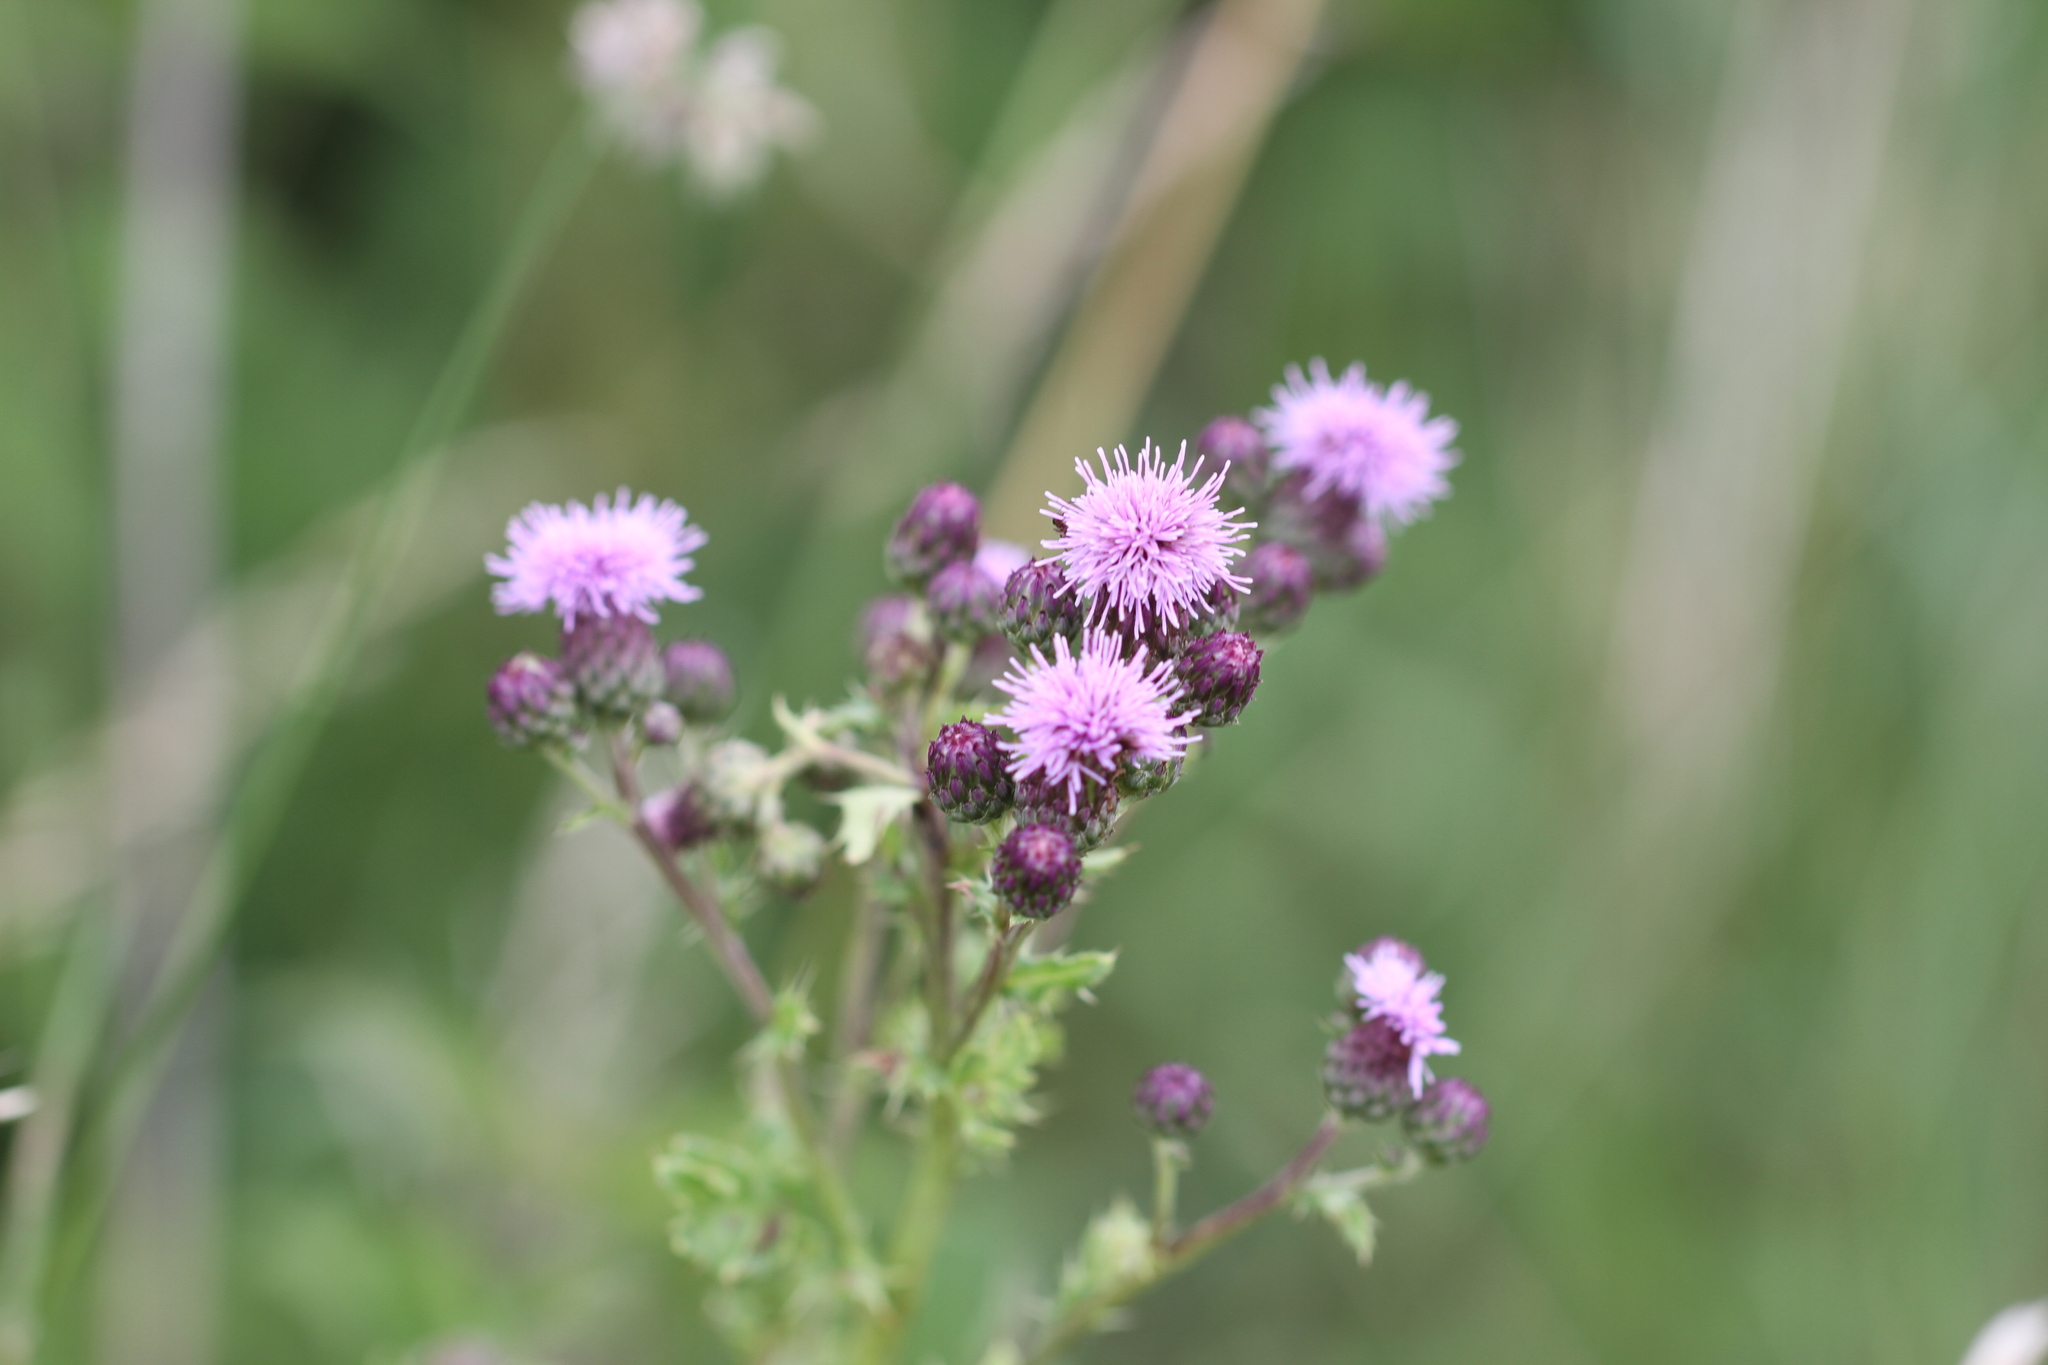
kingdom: Plantae
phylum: Tracheophyta
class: Magnoliopsida
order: Asterales
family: Asteraceae
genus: Carduus
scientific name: Carduus crispus
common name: Welted thistle
